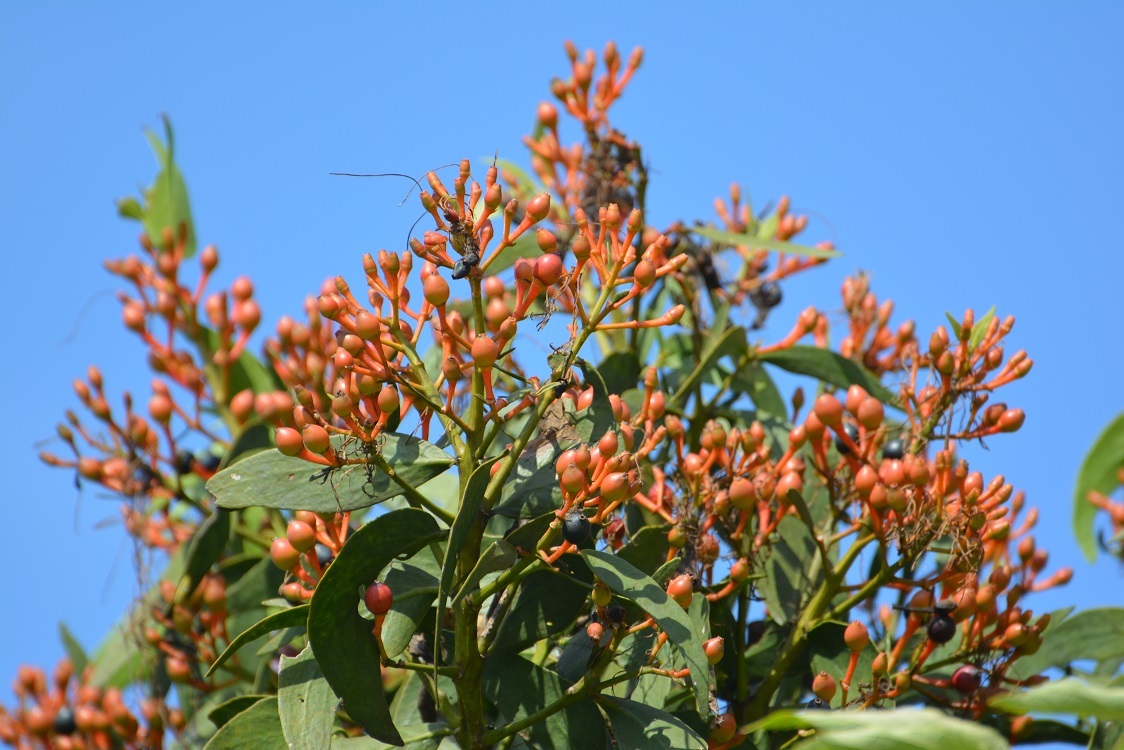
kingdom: Plantae
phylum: Tracheophyta
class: Magnoliopsida
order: Santalales
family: Loranthaceae
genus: Psittacanthus
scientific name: Psittacanthus schiedeanus
